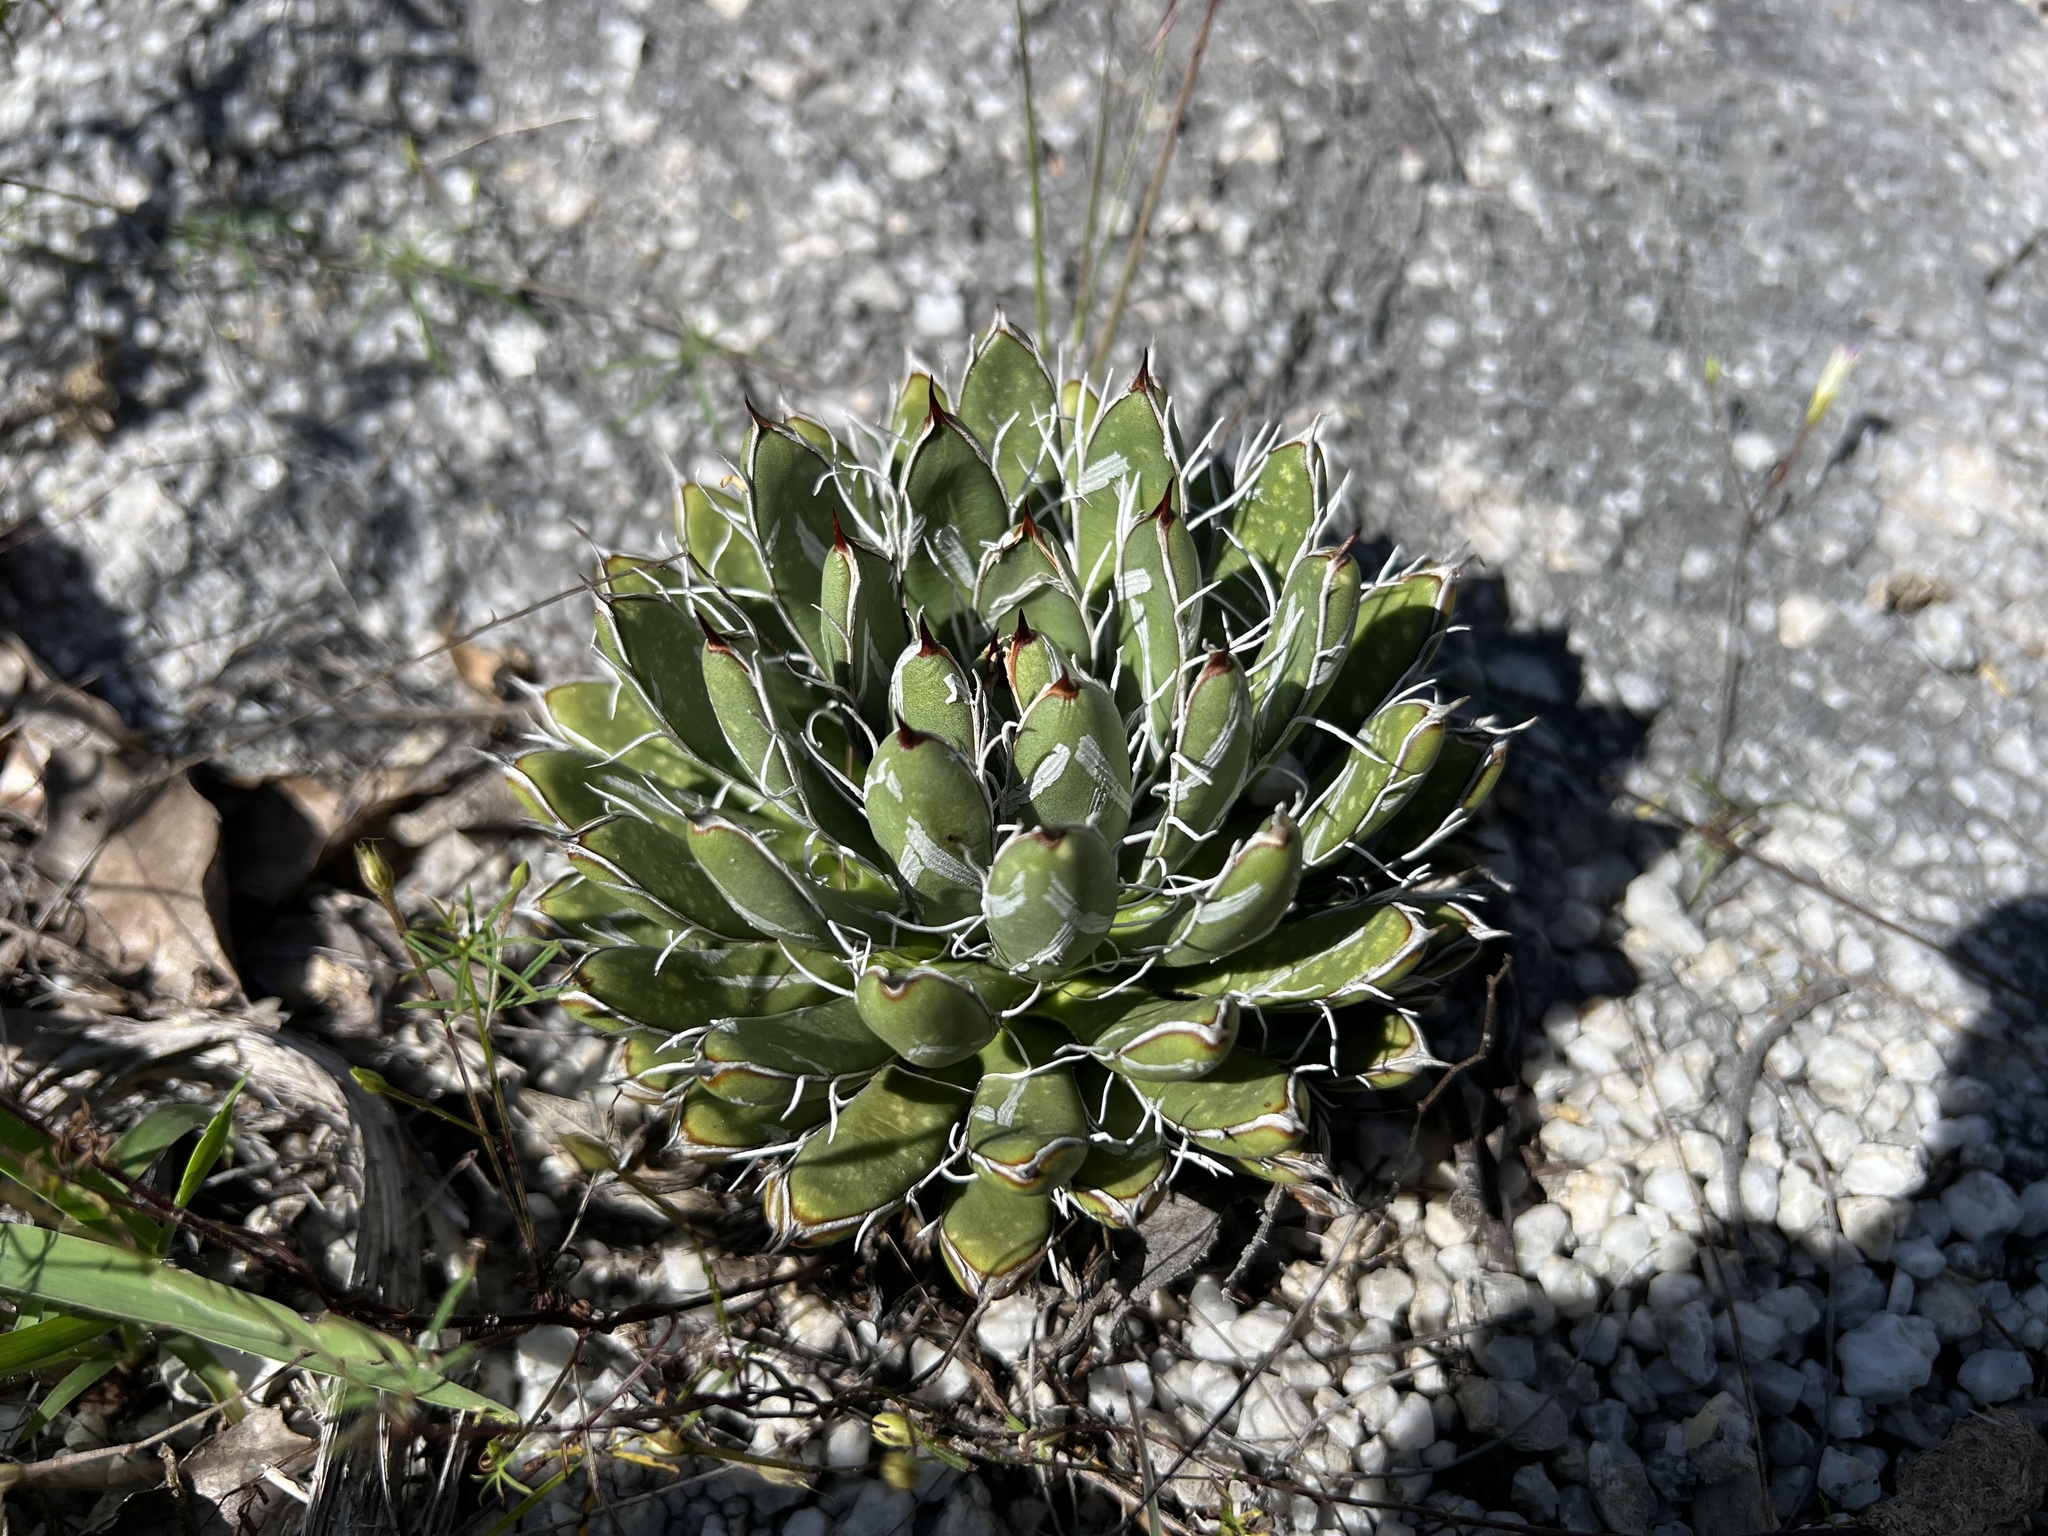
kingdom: Plantae
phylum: Tracheophyta
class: Liliopsida
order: Asparagales
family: Asparagaceae
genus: Agave
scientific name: Agave parviflora
